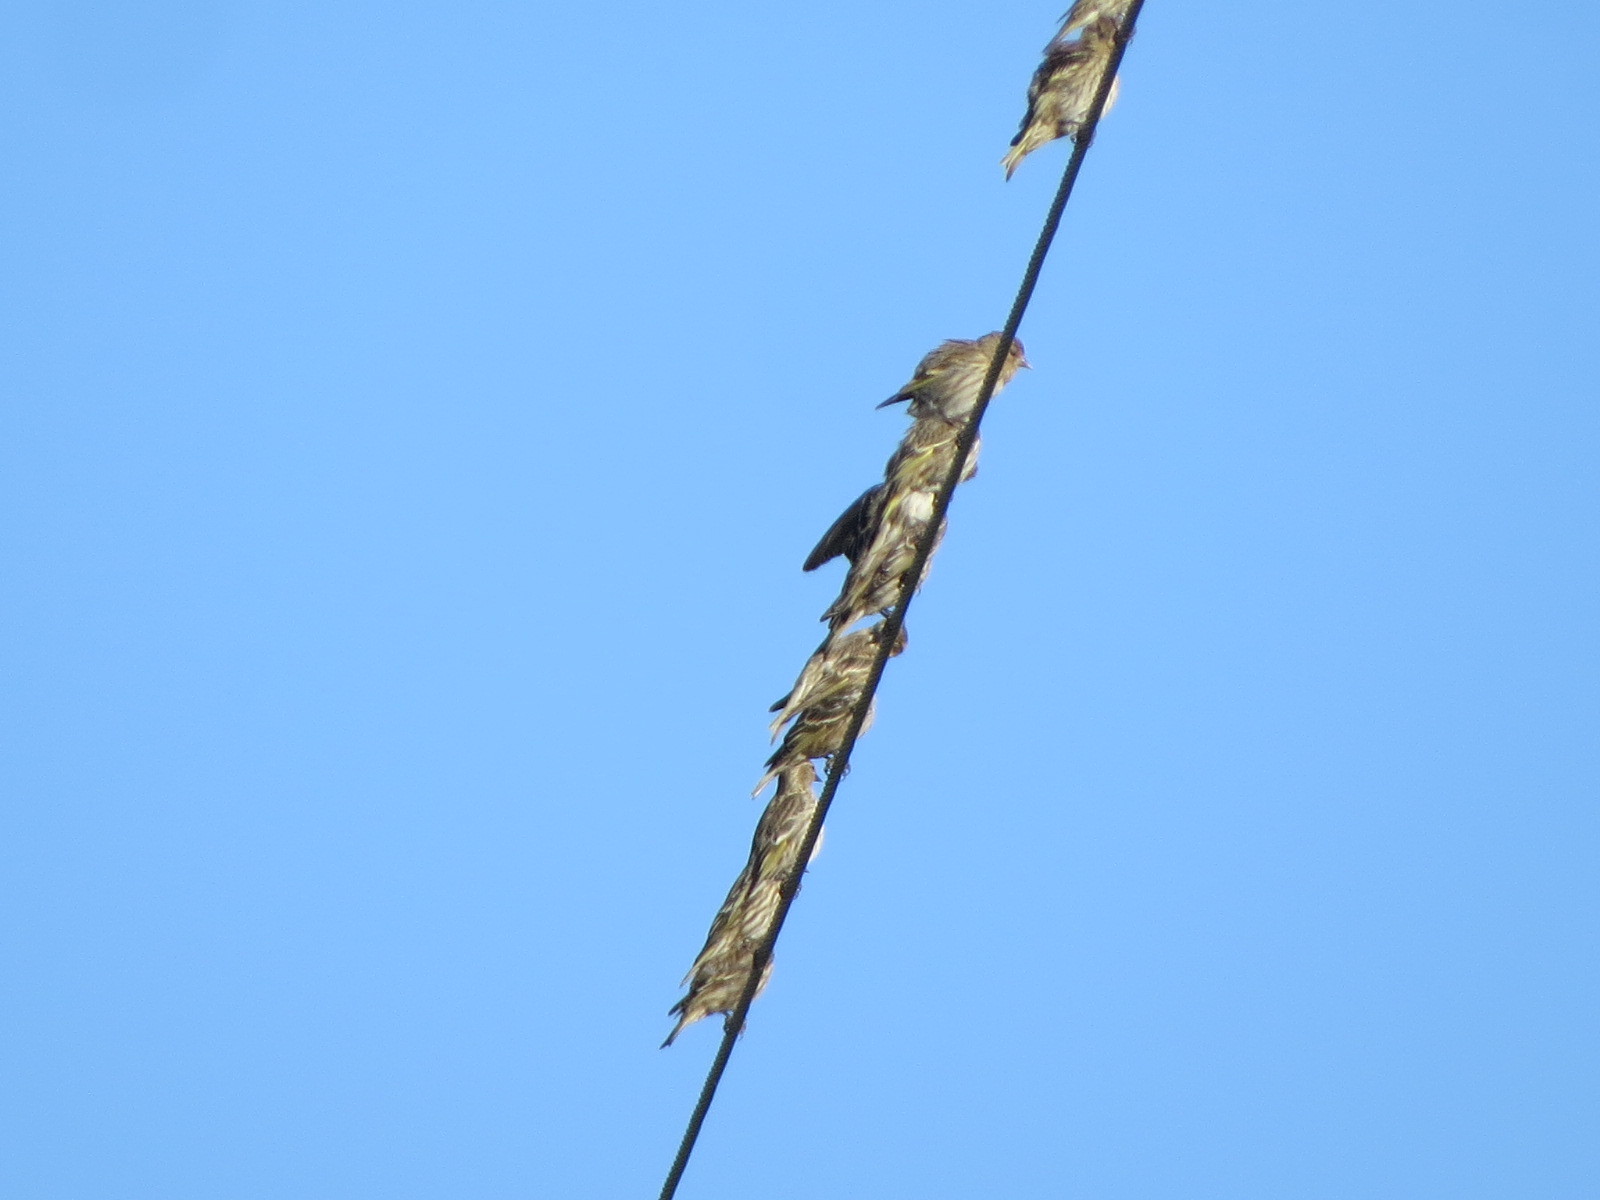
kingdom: Animalia
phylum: Chordata
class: Aves
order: Passeriformes
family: Fringillidae
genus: Spinus
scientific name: Spinus pinus
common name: Pine siskin
